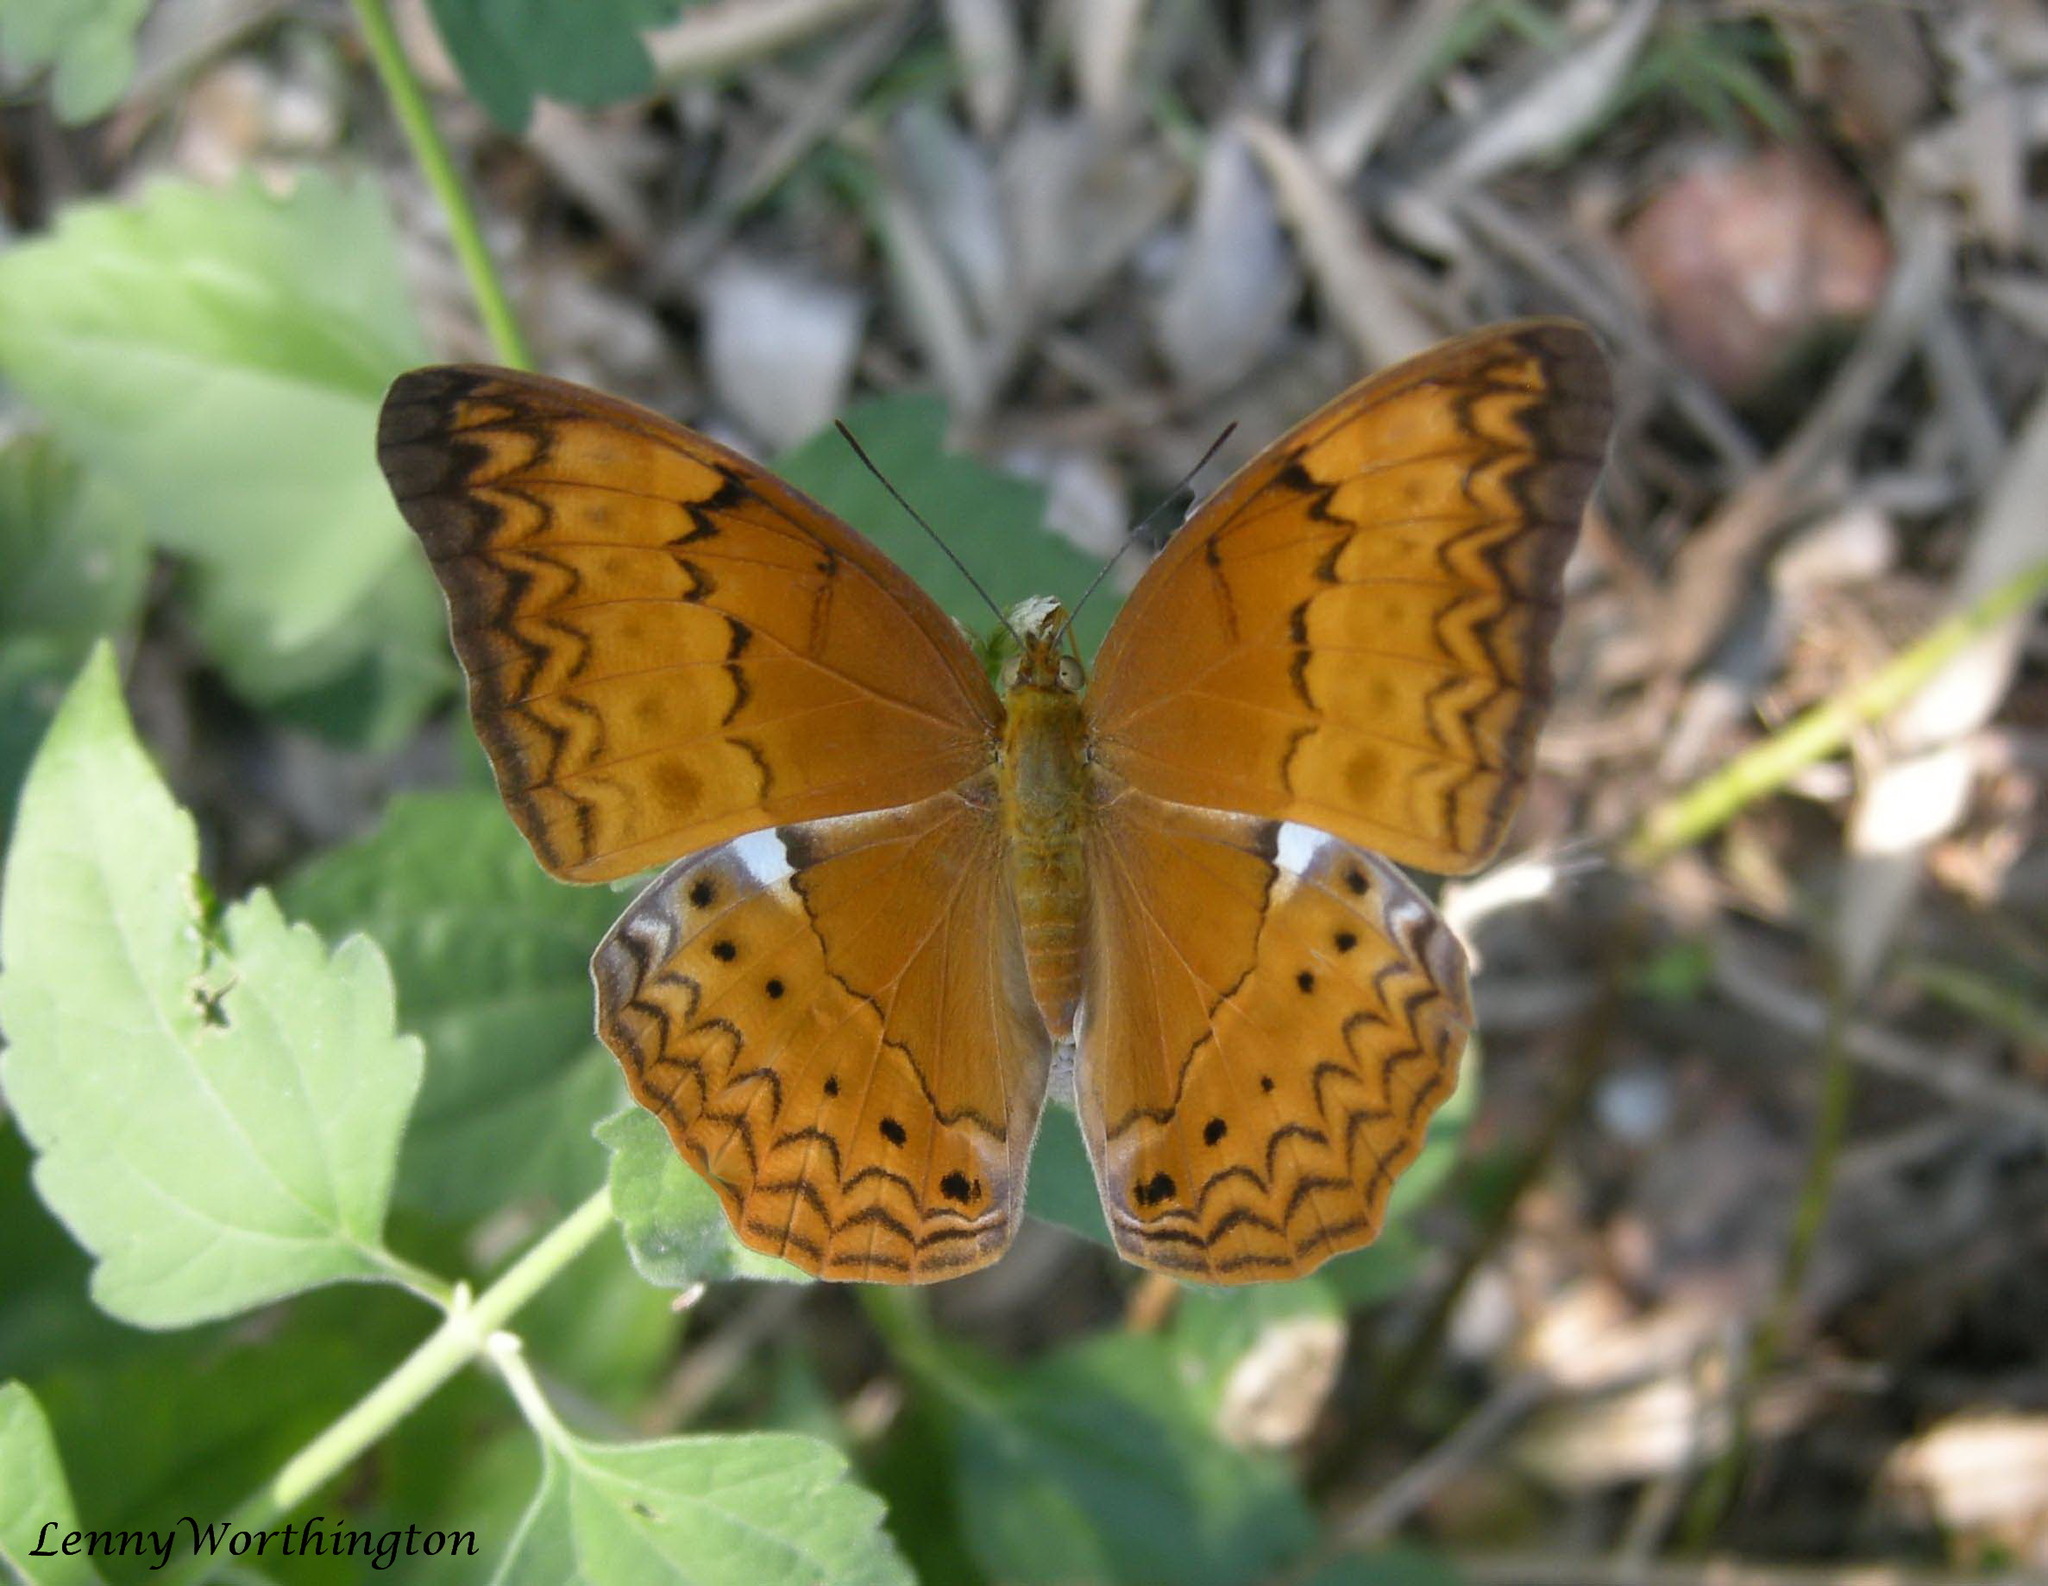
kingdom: Animalia
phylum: Arthropoda
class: Insecta
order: Lepidoptera
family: Nymphalidae
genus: Cirrochroa
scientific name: Cirrochroa tyche
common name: Common yeoman
